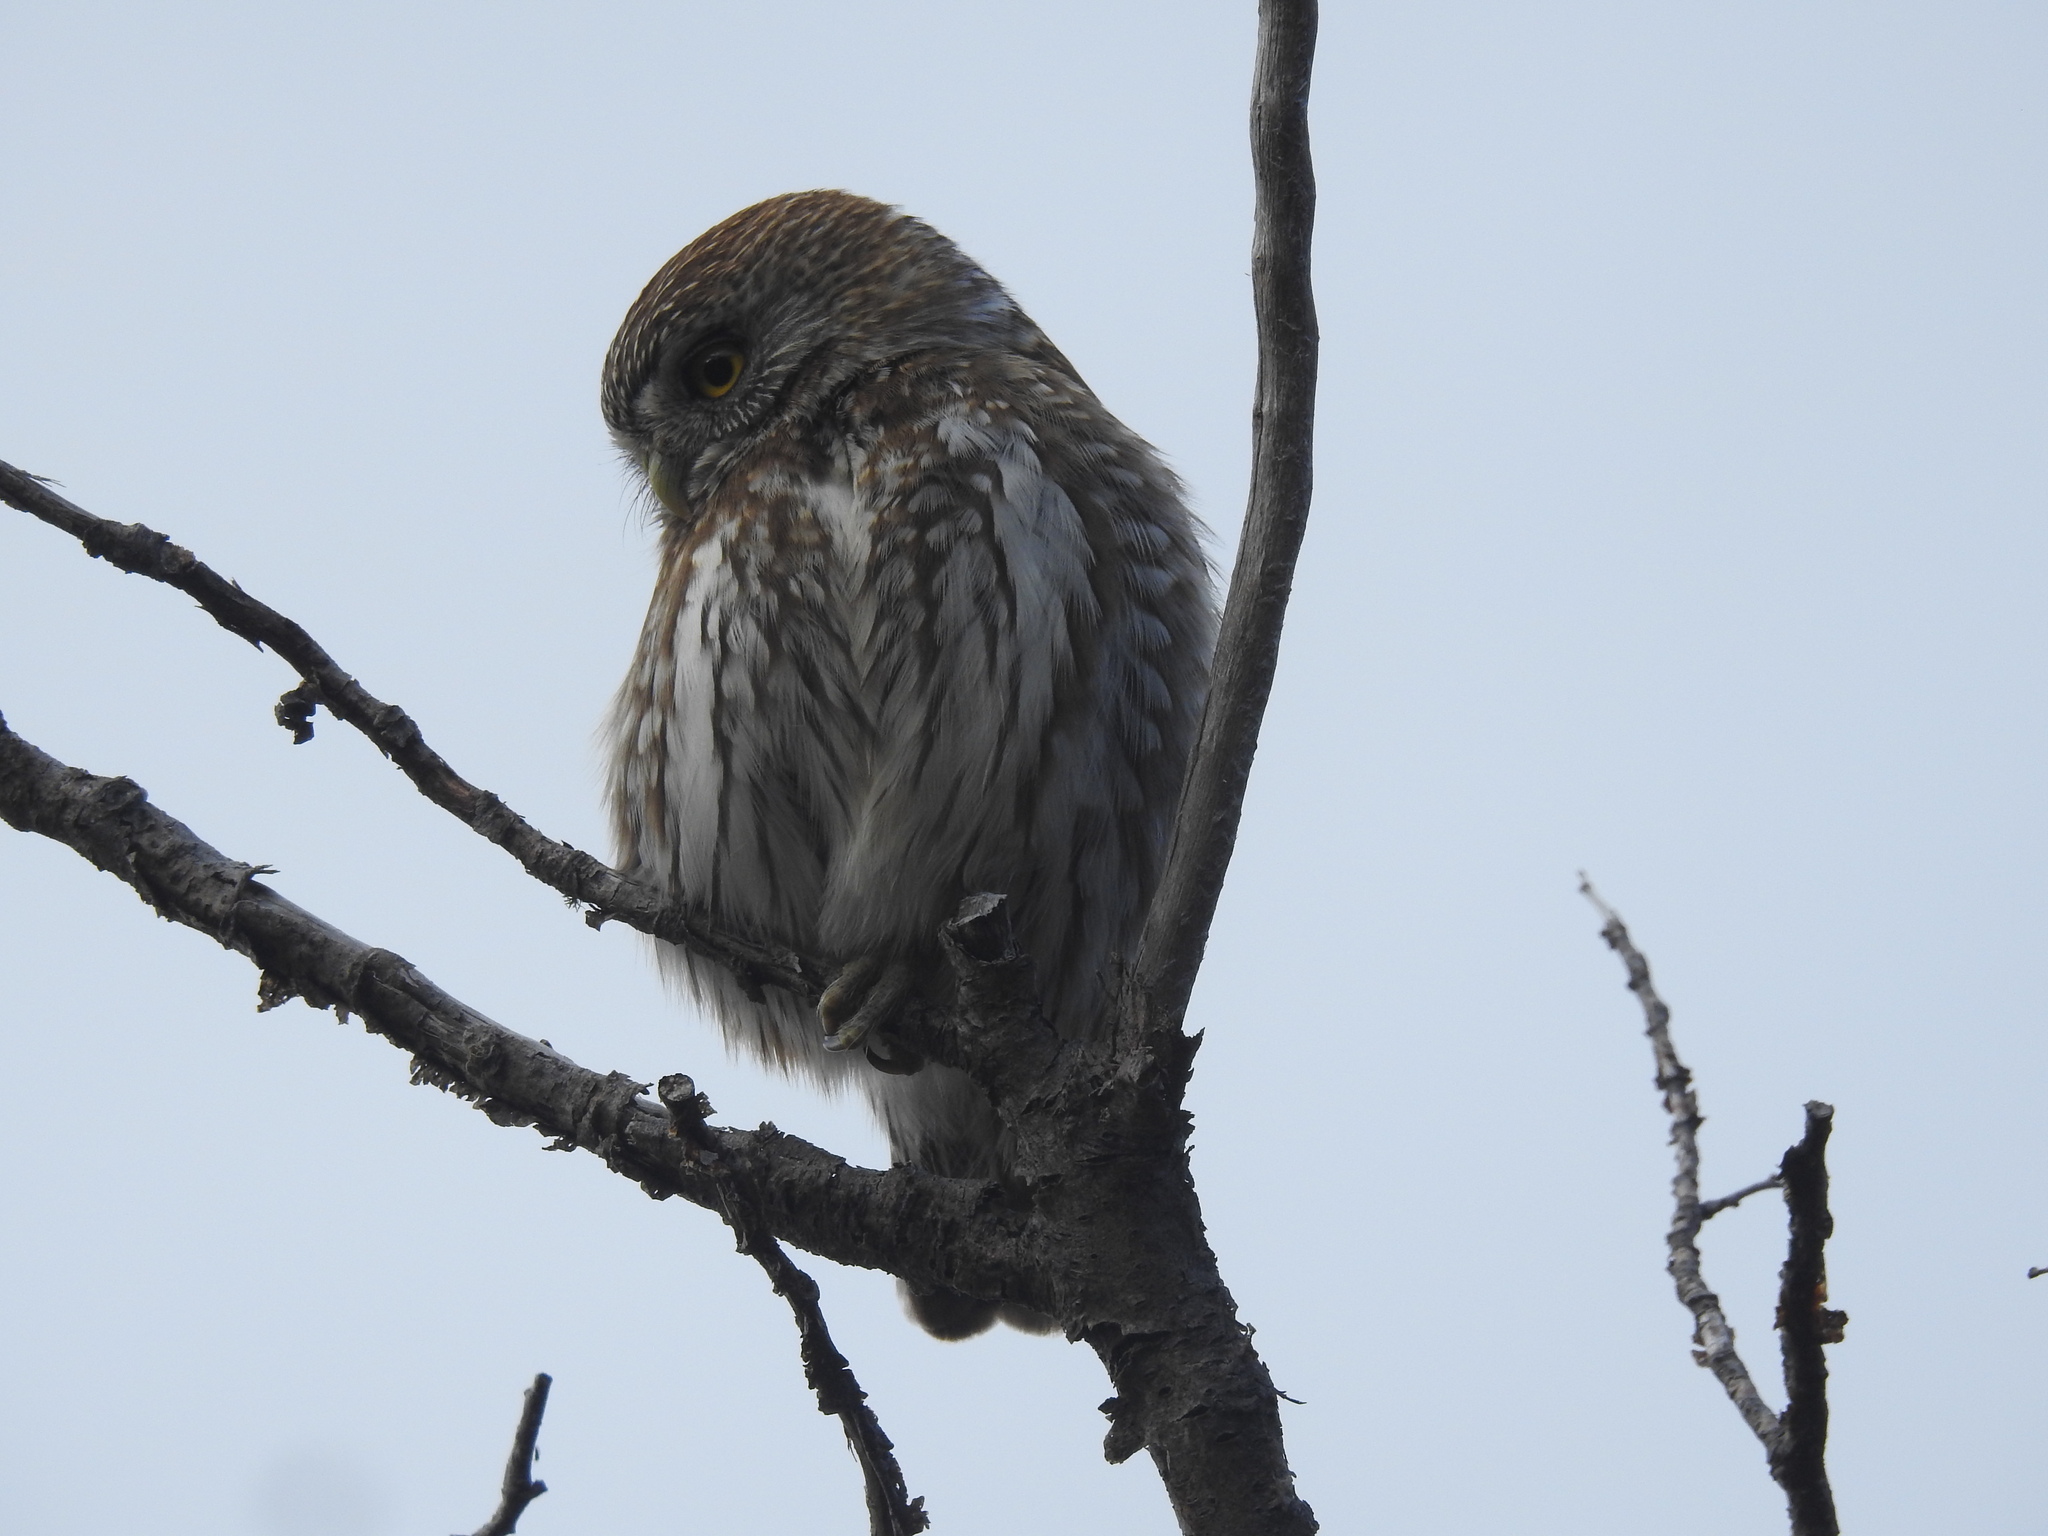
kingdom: Animalia
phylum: Chordata
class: Aves
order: Strigiformes
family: Strigidae
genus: Glaucidium
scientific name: Glaucidium nana
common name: Austral pygmy-owl
